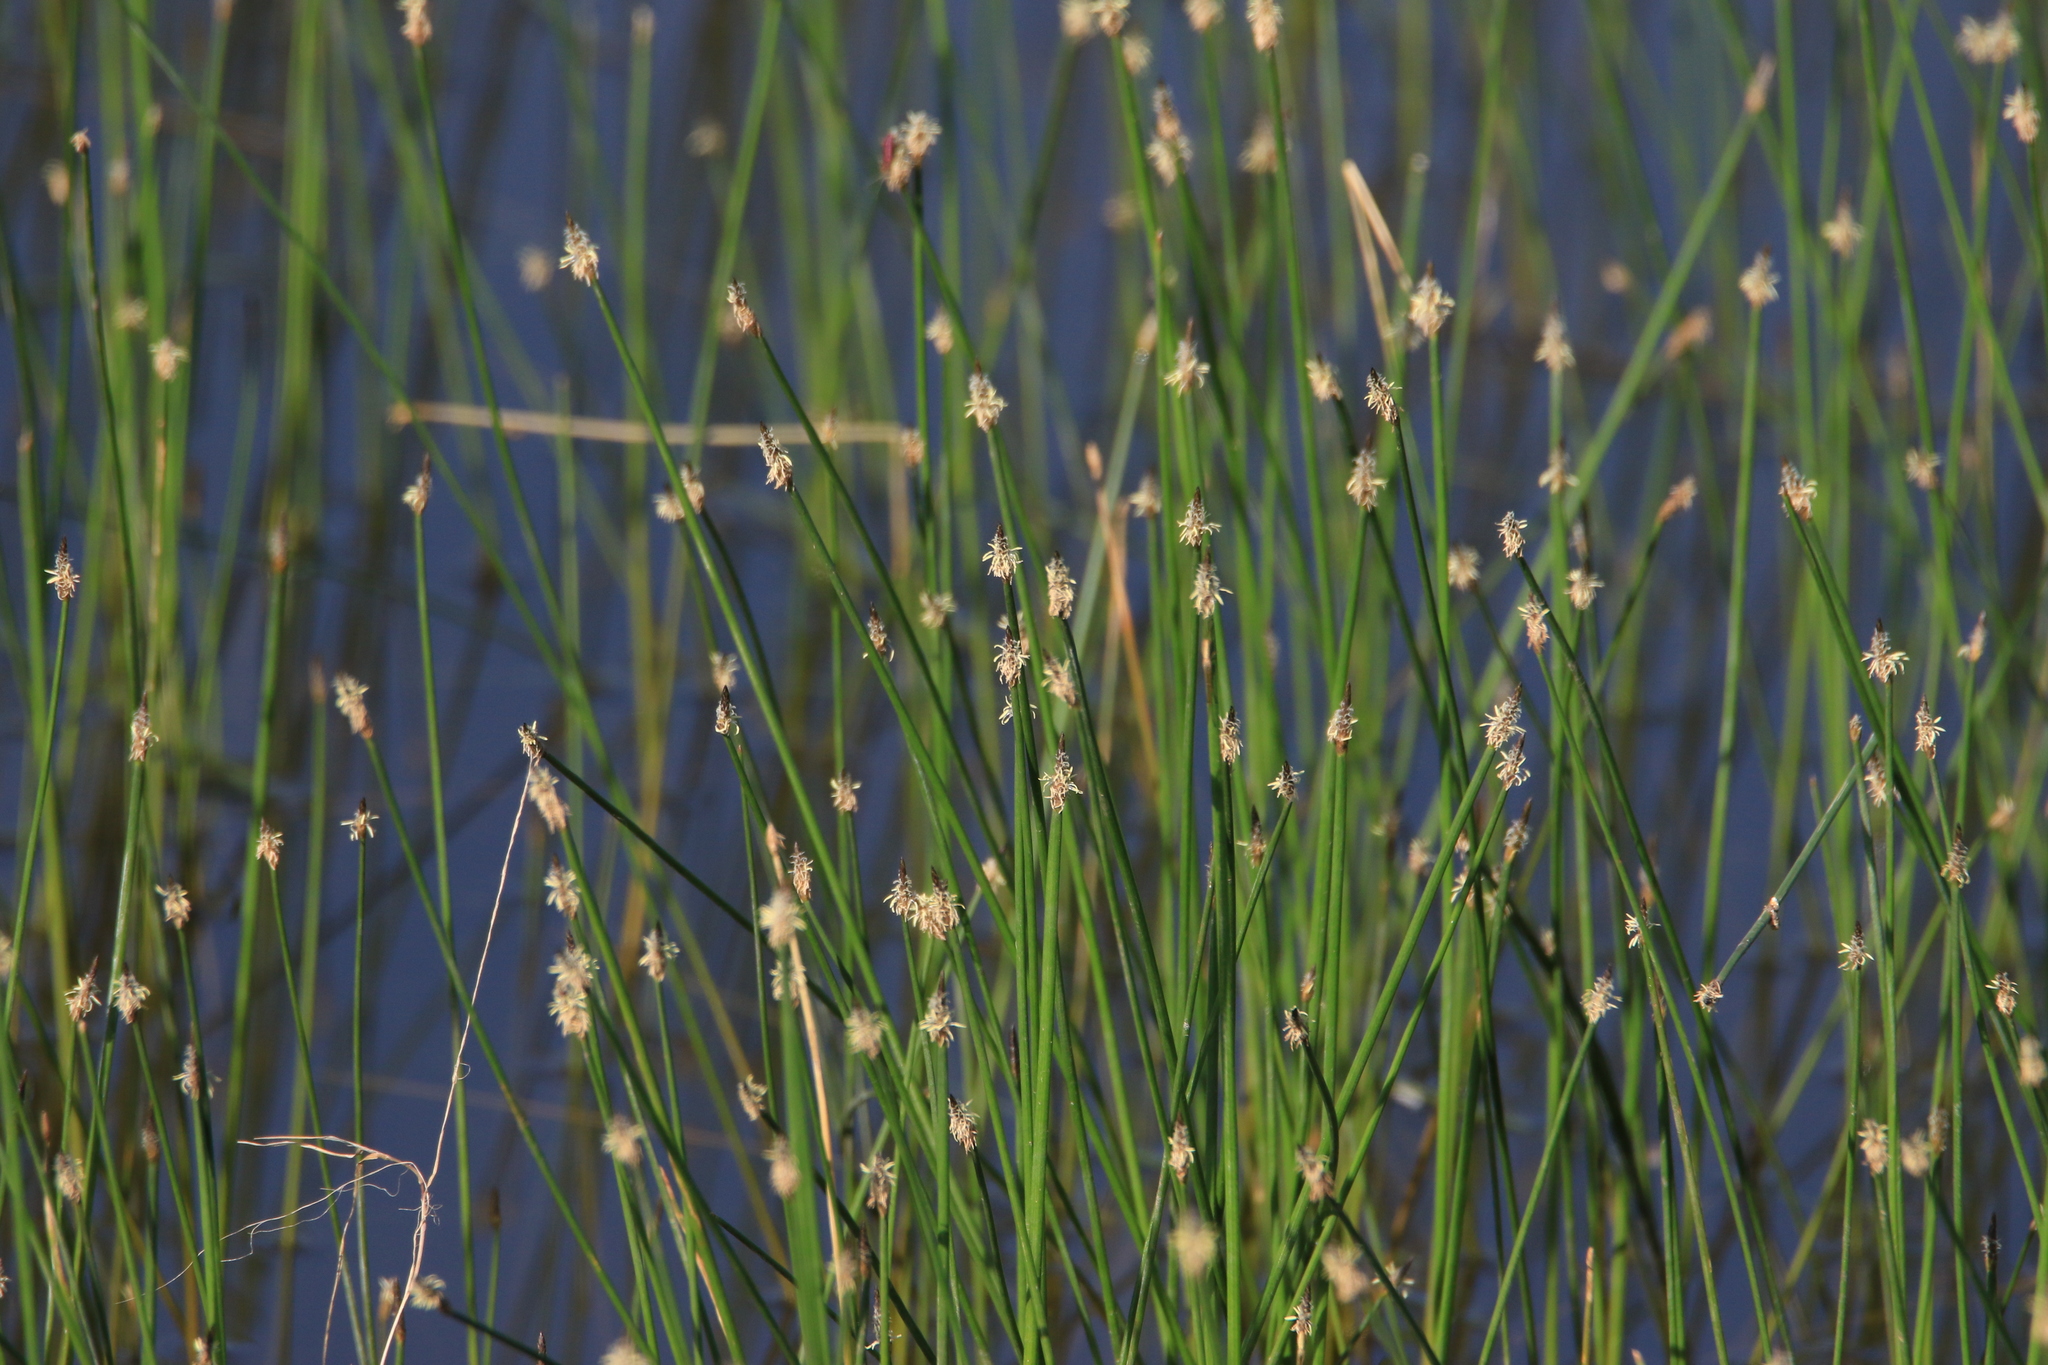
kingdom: Plantae
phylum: Tracheophyta
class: Liliopsida
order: Poales
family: Cyperaceae
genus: Eleocharis
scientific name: Eleocharis palustris
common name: Common spike-rush
